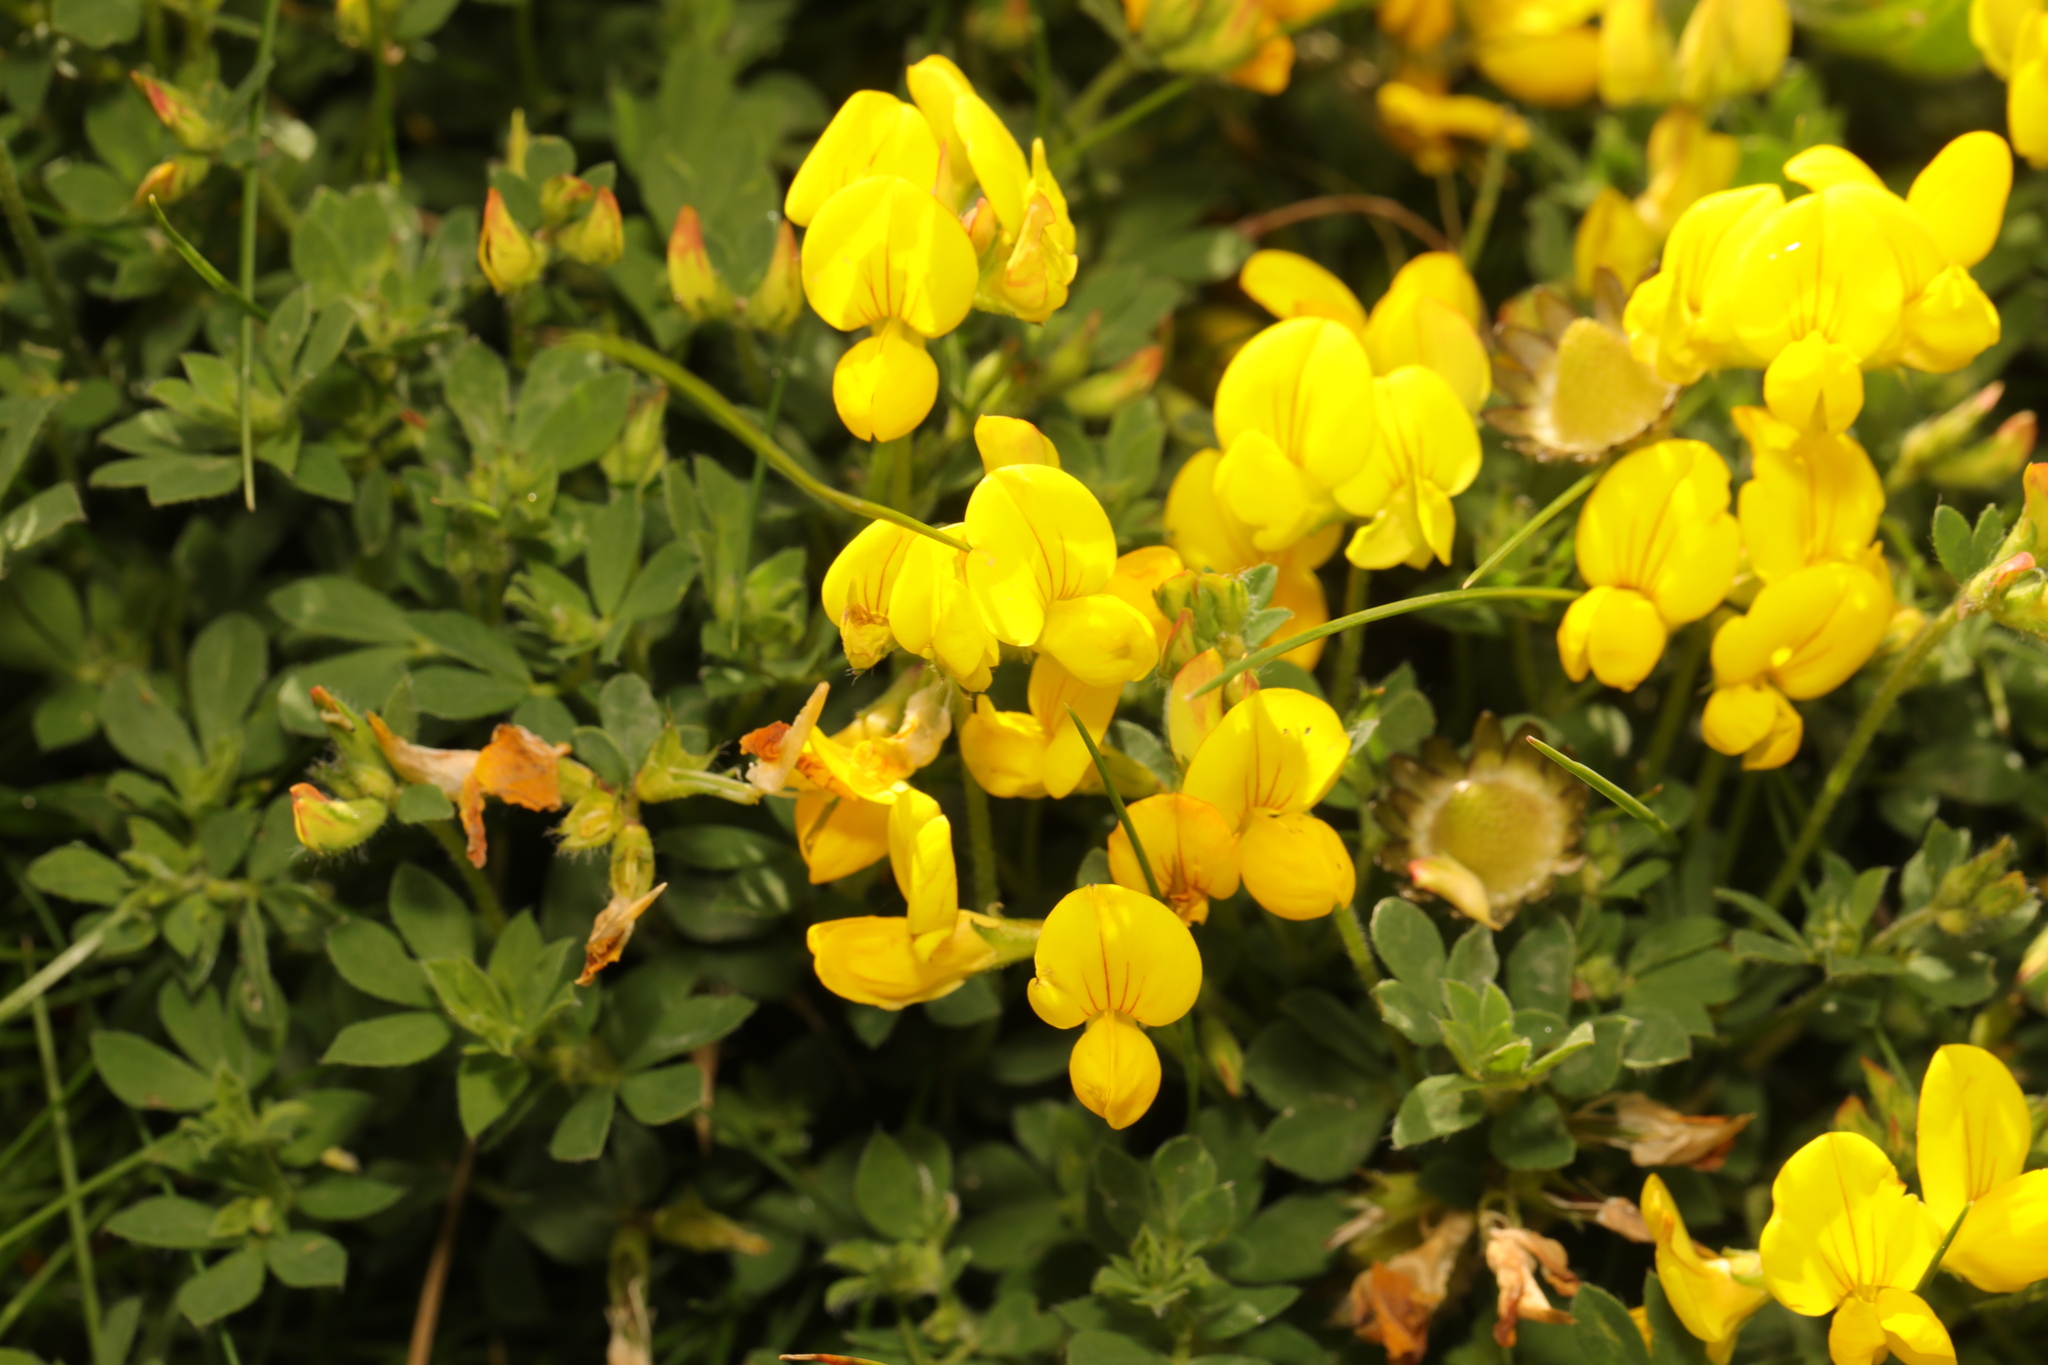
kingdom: Plantae
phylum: Tracheophyta
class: Magnoliopsida
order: Fabales
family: Fabaceae
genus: Lotus
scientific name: Lotus corniculatus
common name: Common bird's-foot-trefoil
